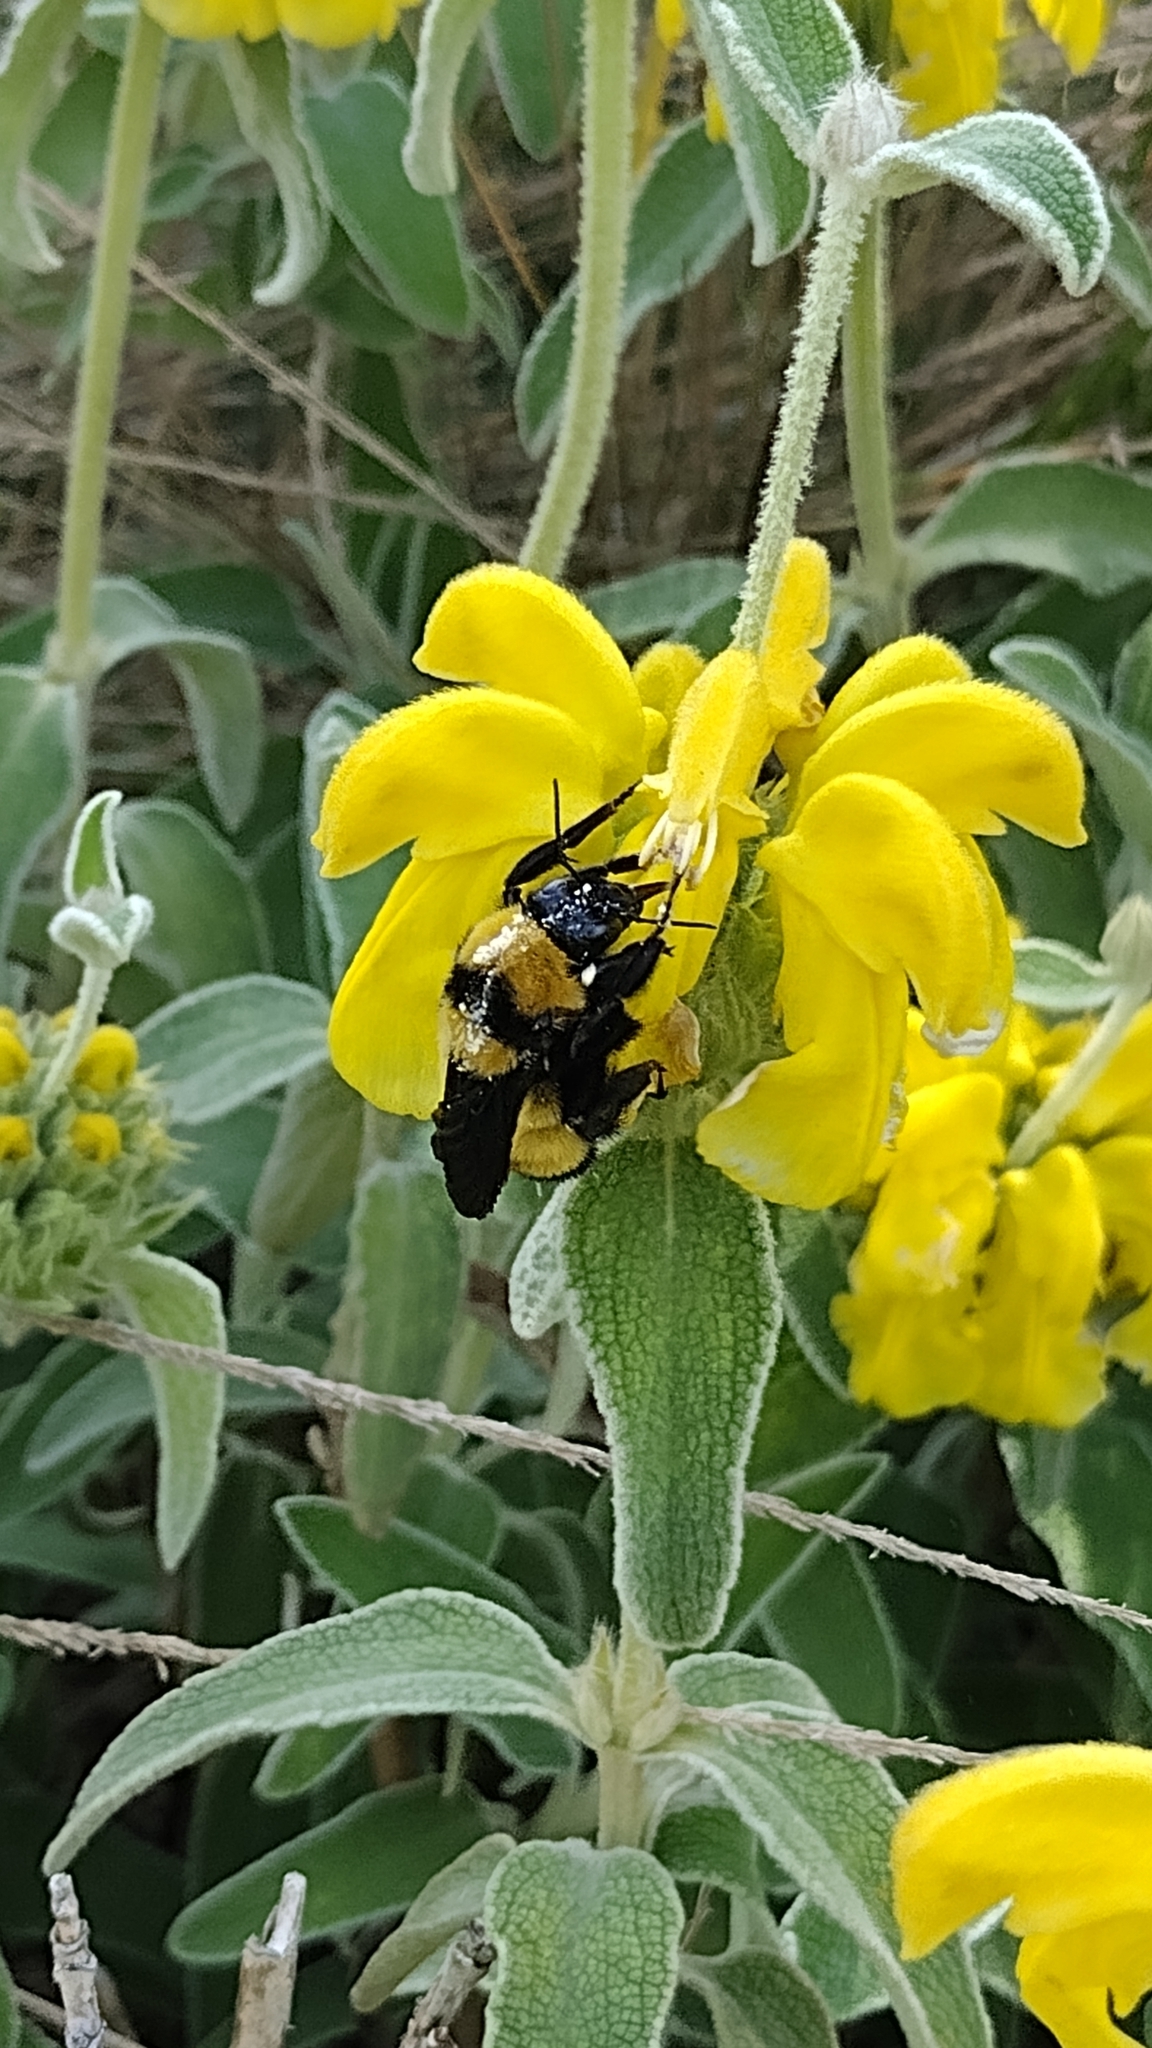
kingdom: Animalia
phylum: Arthropoda
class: Insecta
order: Hymenoptera
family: Apidae
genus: Bombus
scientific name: Bombus sonorus
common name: Sonoran bumble bee
